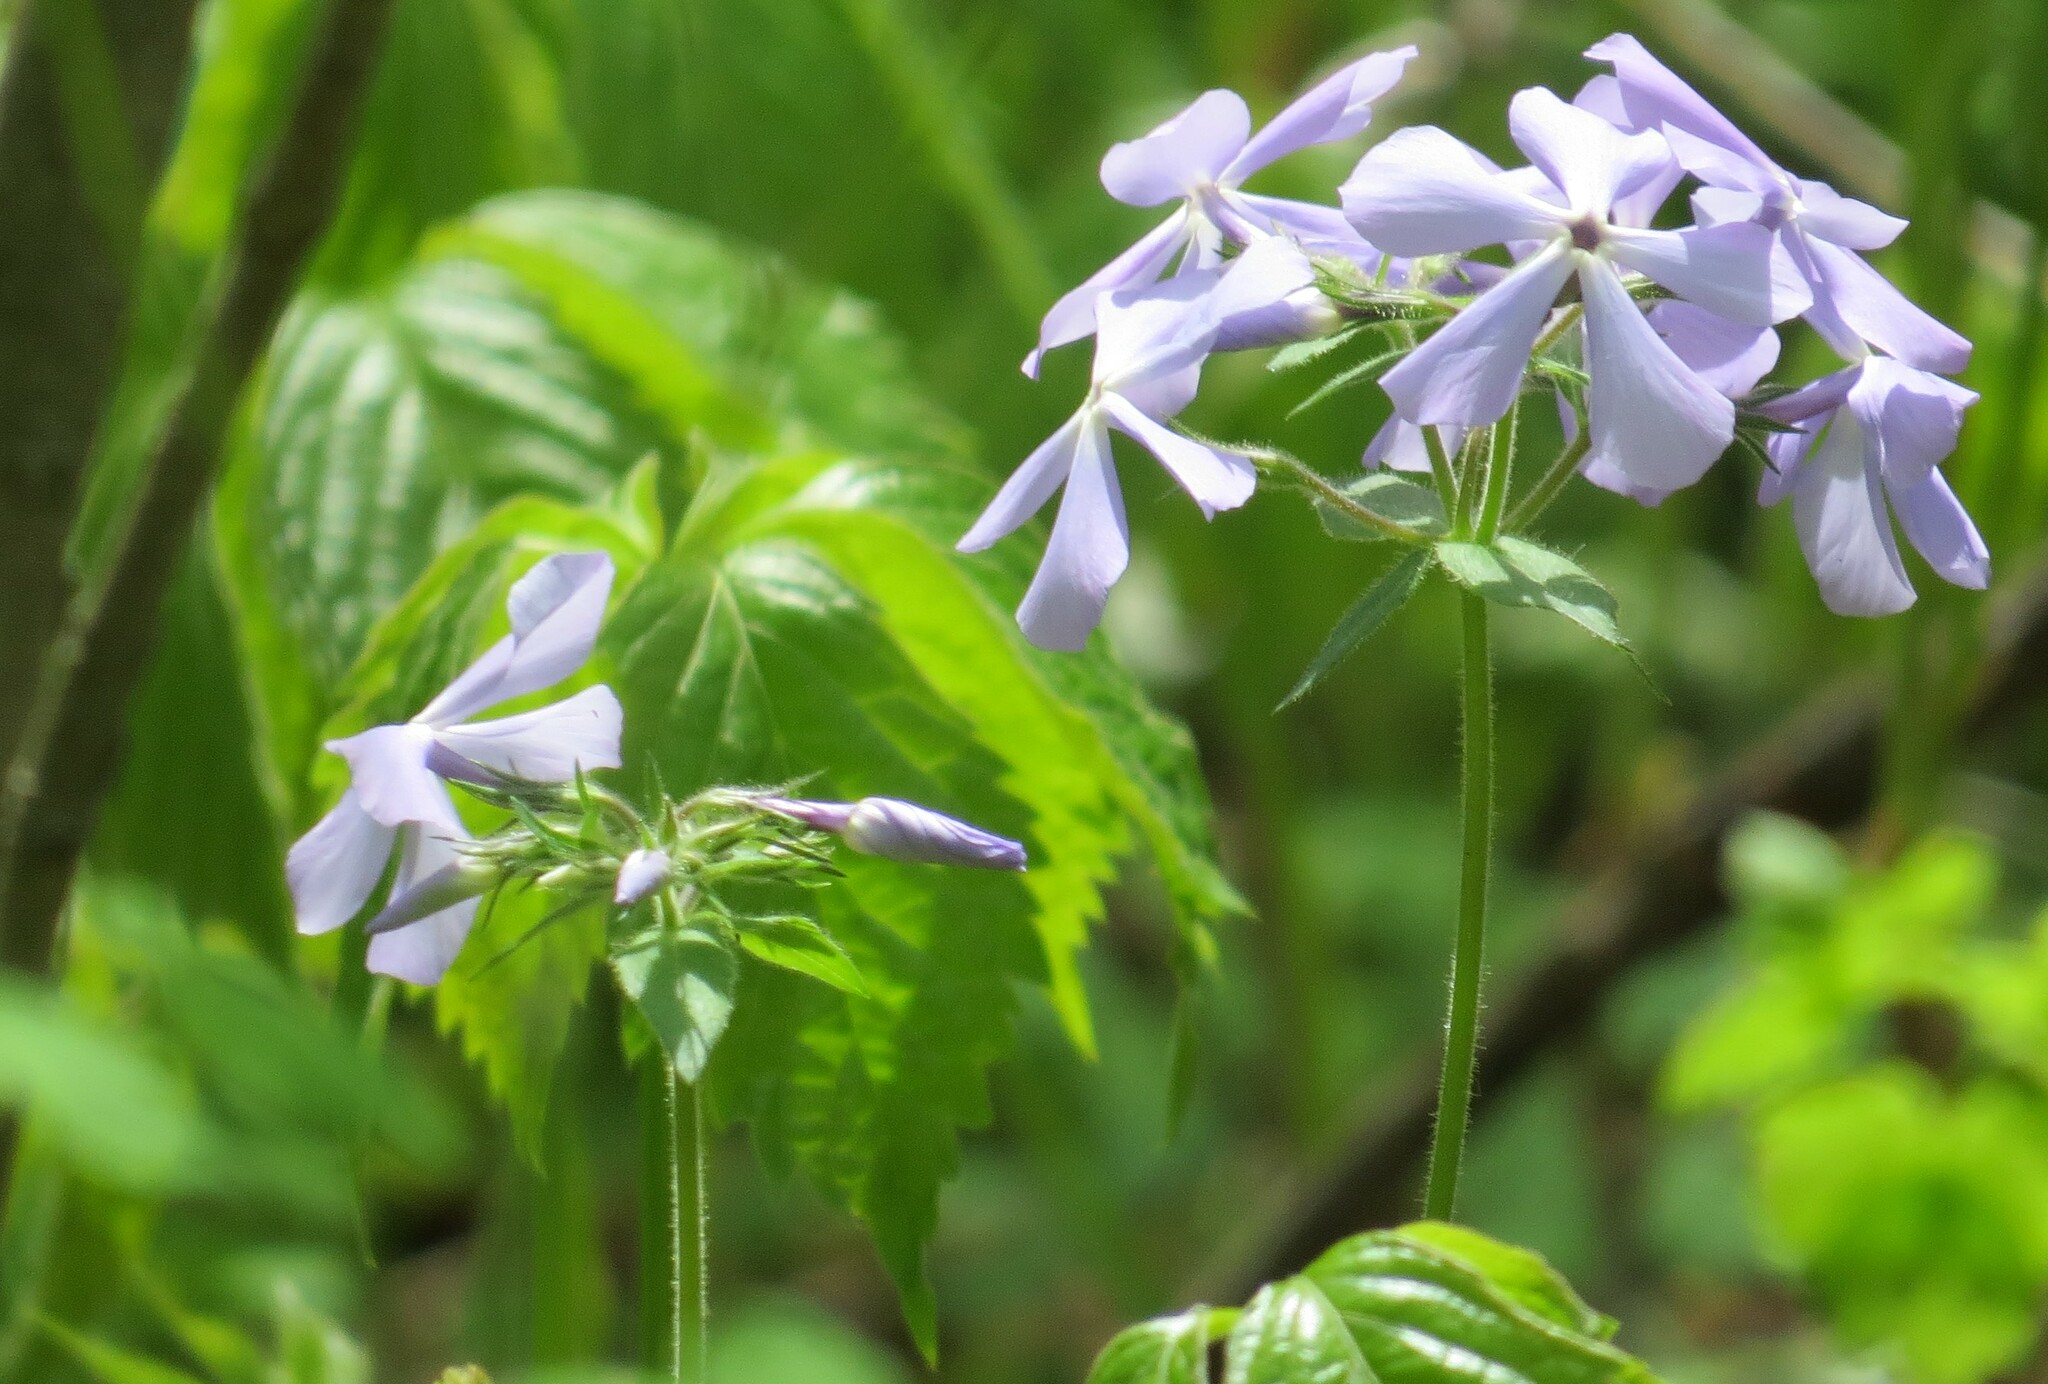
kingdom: Plantae
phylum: Tracheophyta
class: Magnoliopsida
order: Ericales
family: Polemoniaceae
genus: Phlox
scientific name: Phlox divaricata
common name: Blue phlox
